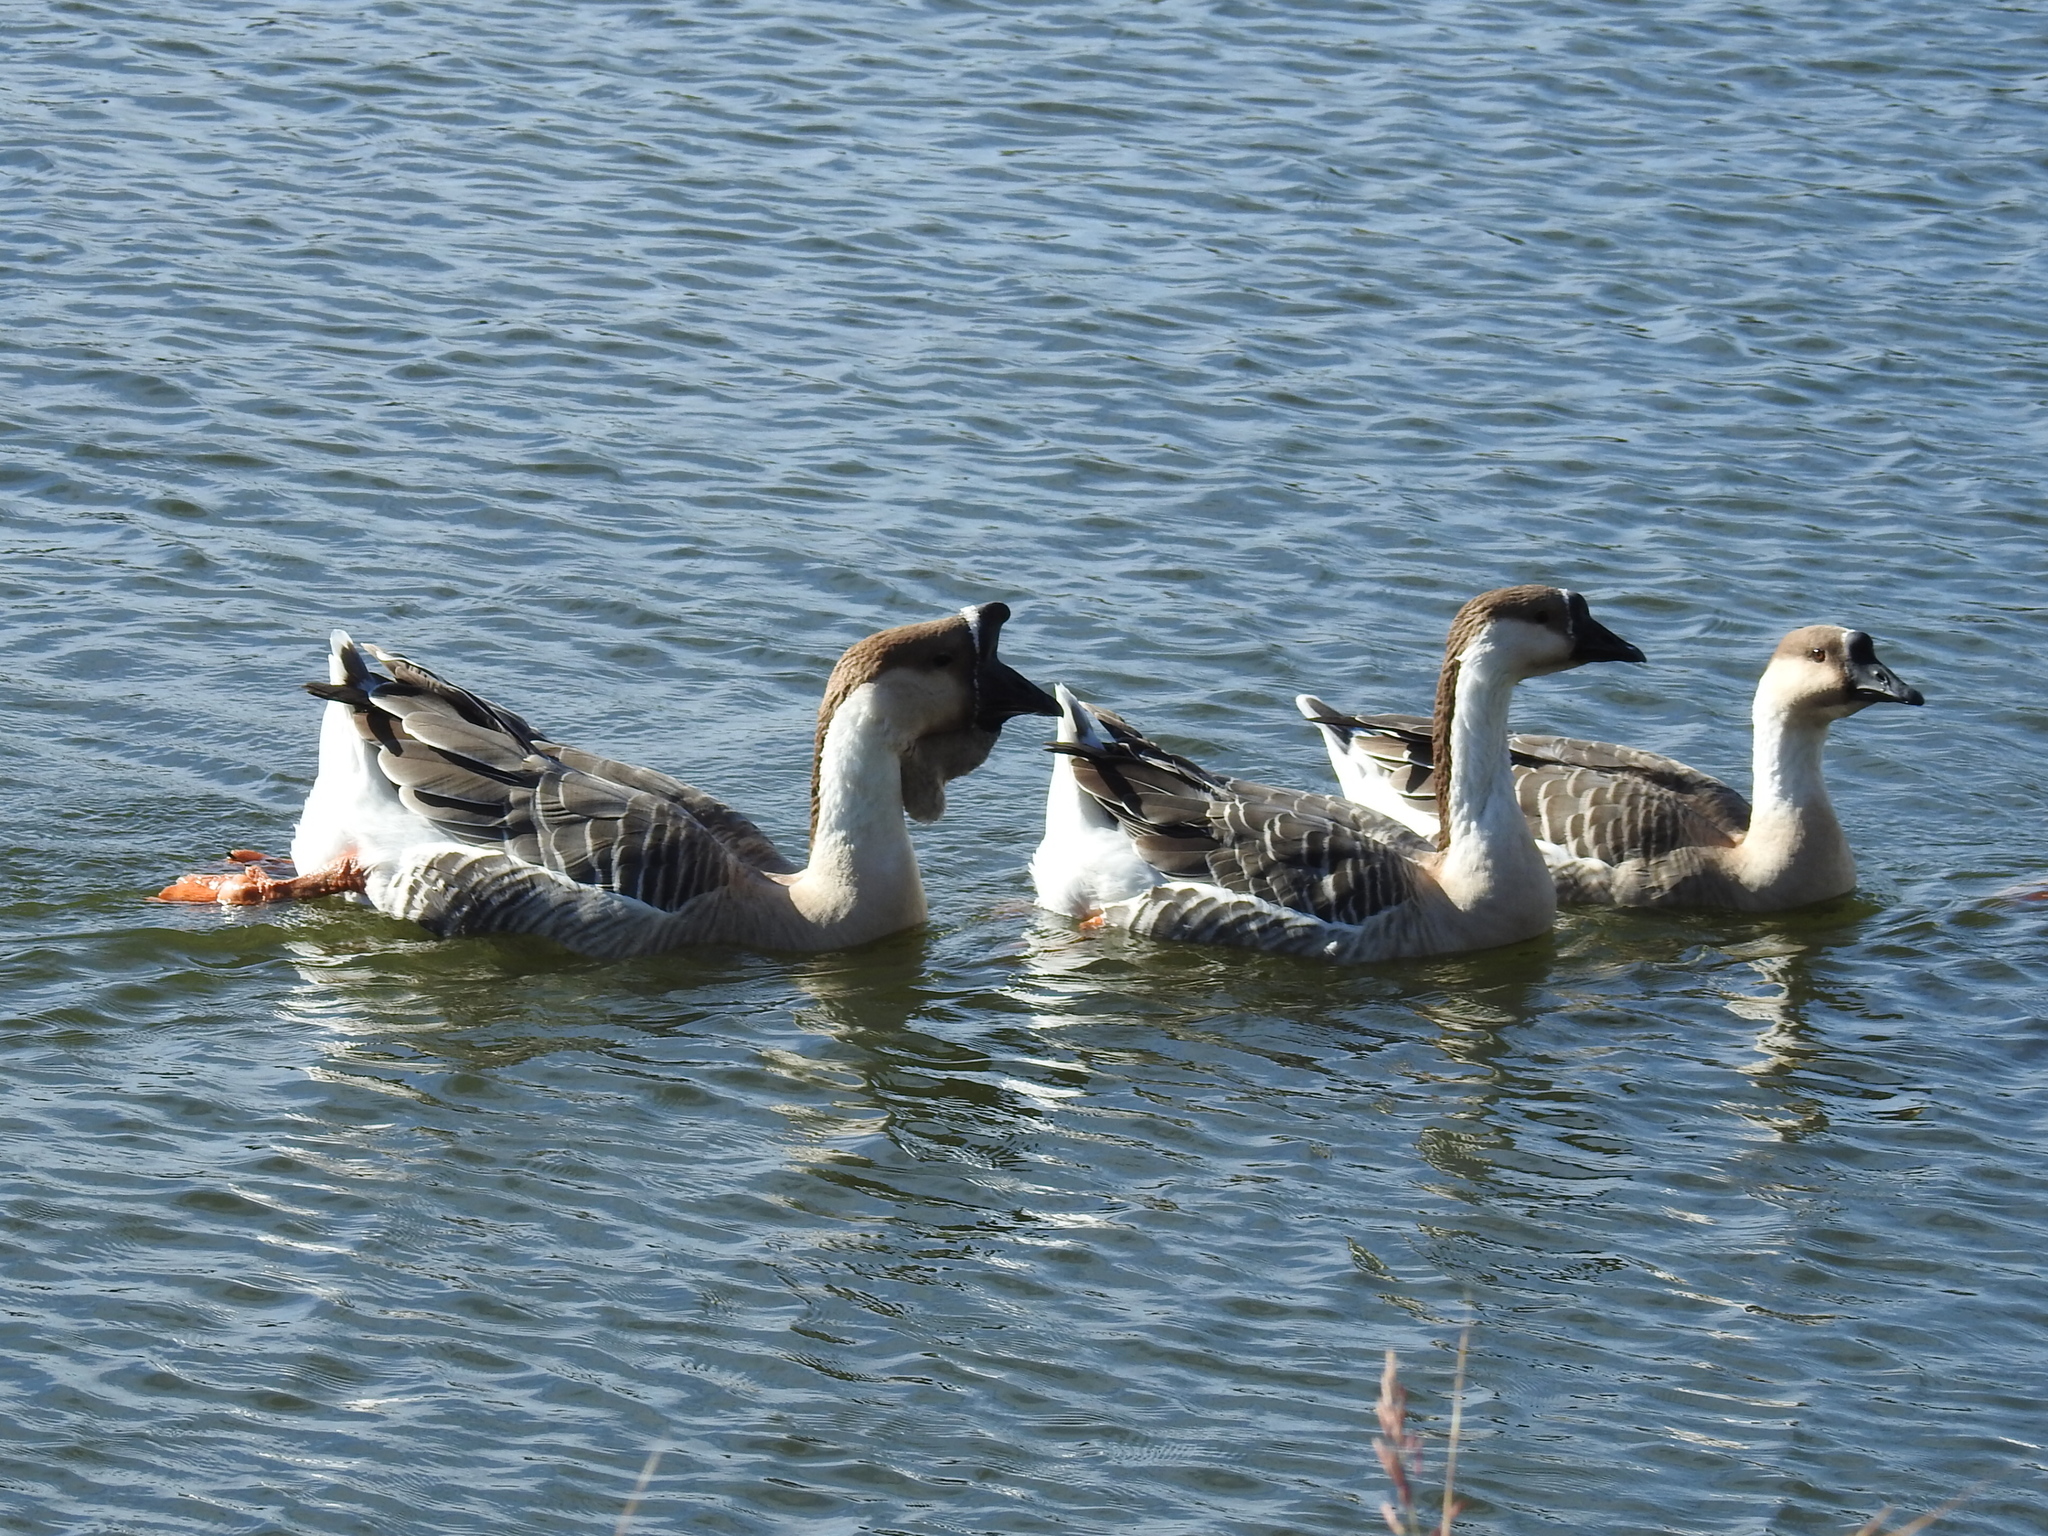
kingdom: Animalia
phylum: Chordata
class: Aves
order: Anseriformes
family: Anatidae
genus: Anser
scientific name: Anser cygnoides
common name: Swan goose
